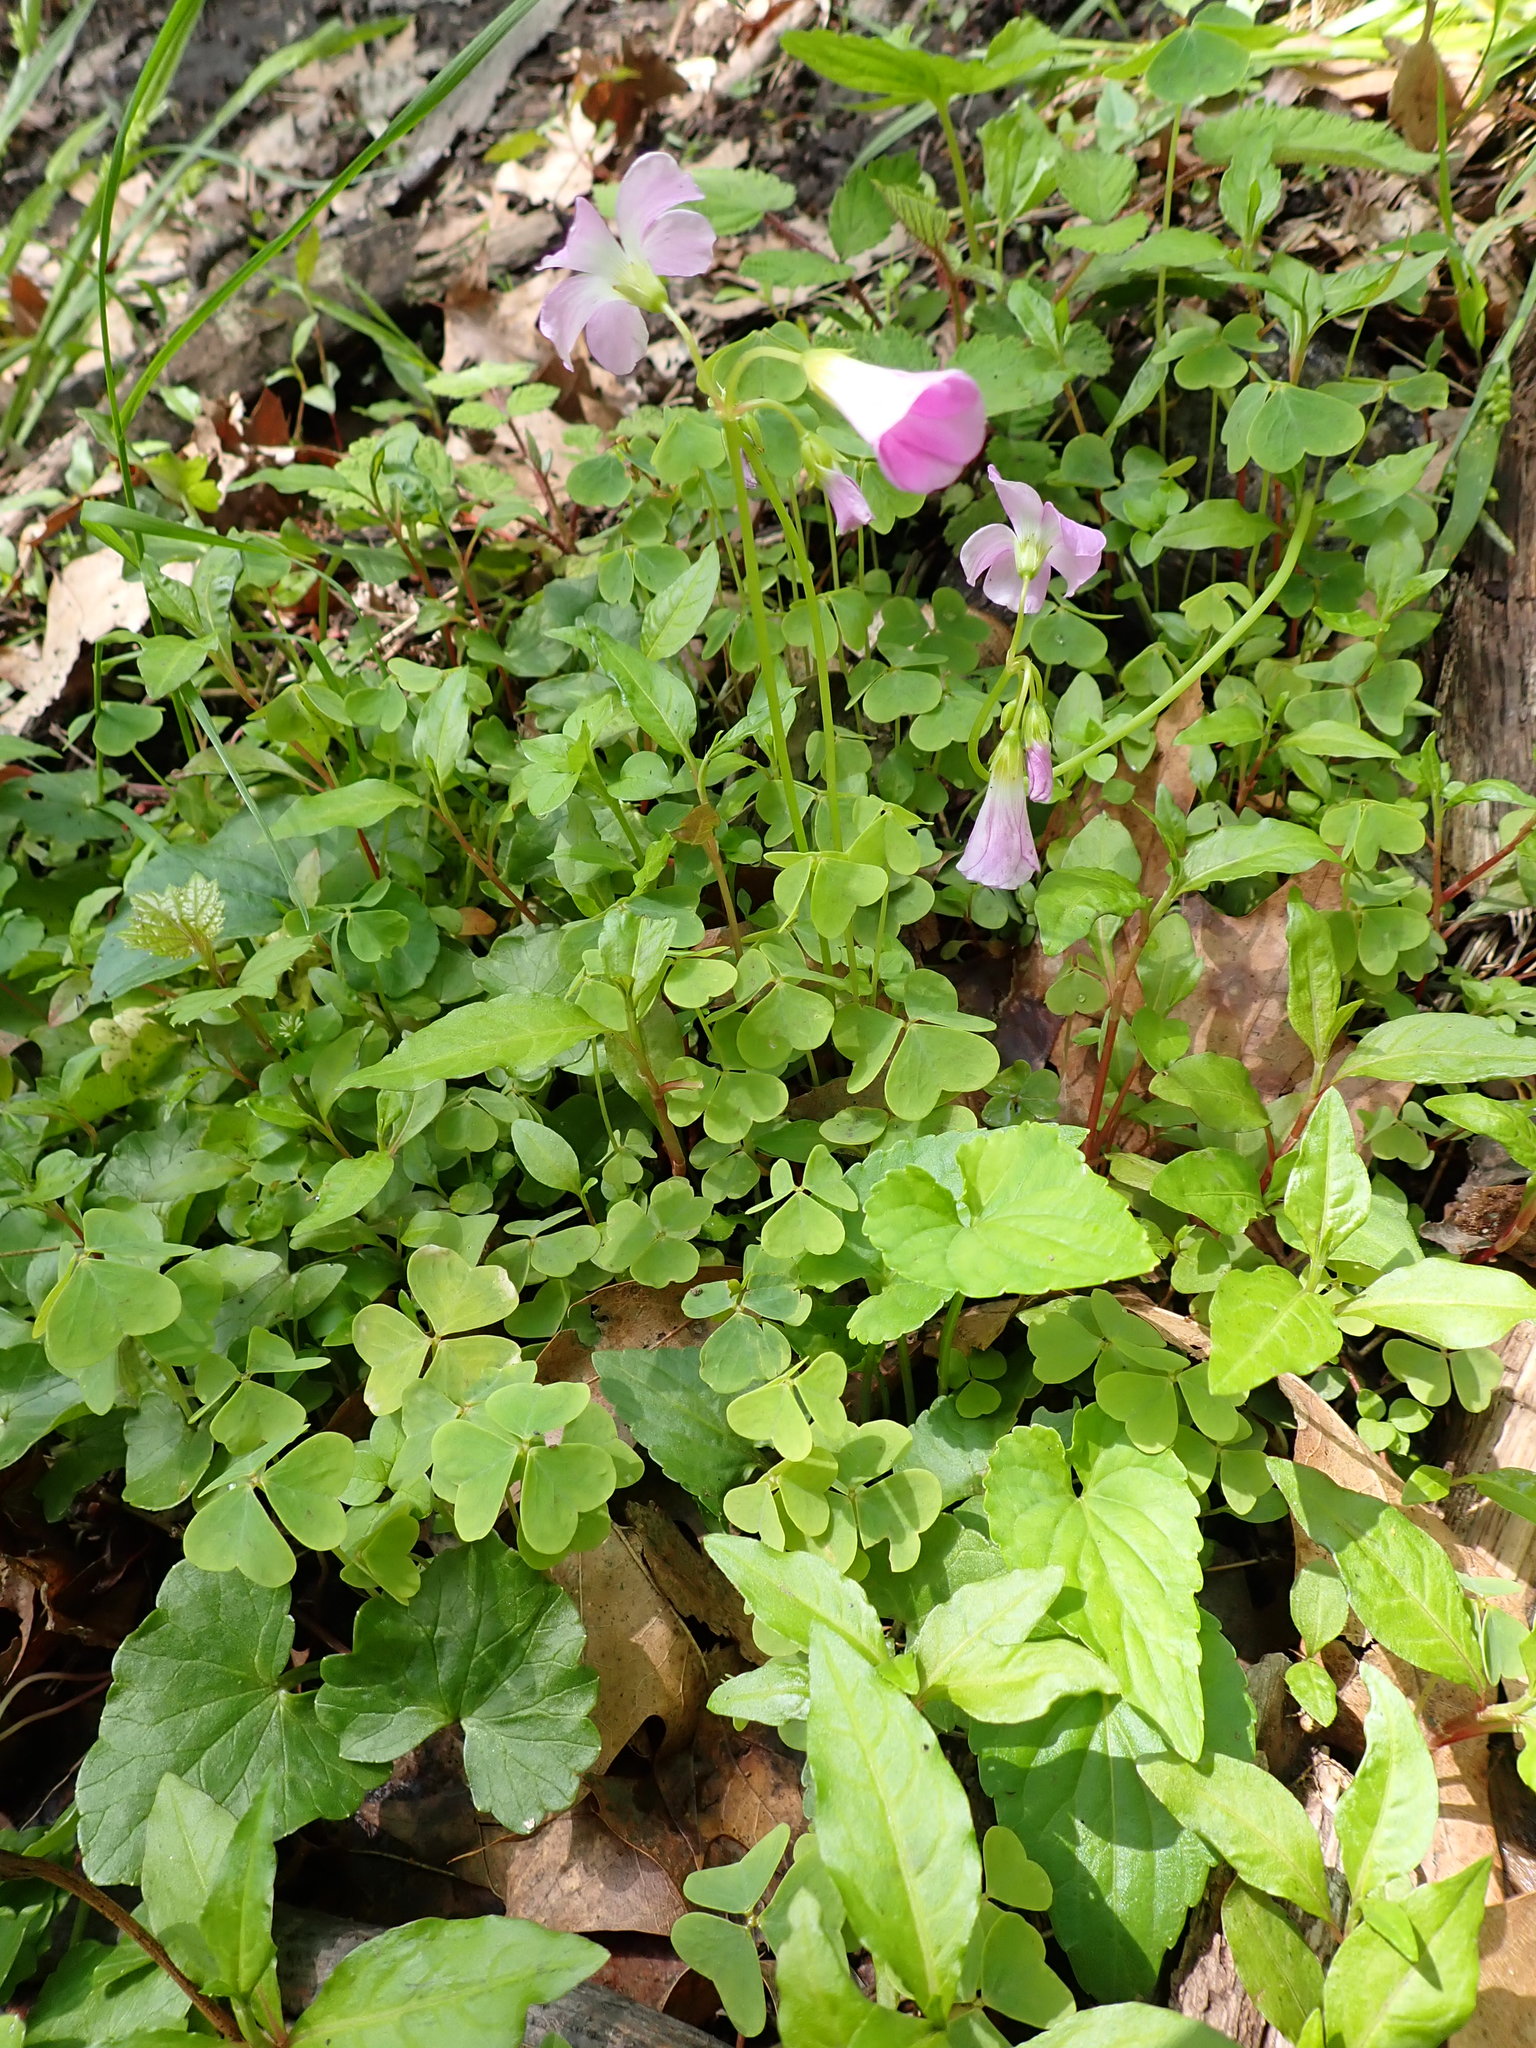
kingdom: Plantae
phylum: Tracheophyta
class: Magnoliopsida
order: Oxalidales
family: Oxalidaceae
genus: Oxalis
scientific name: Oxalis violacea
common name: Violet wood-sorrel
